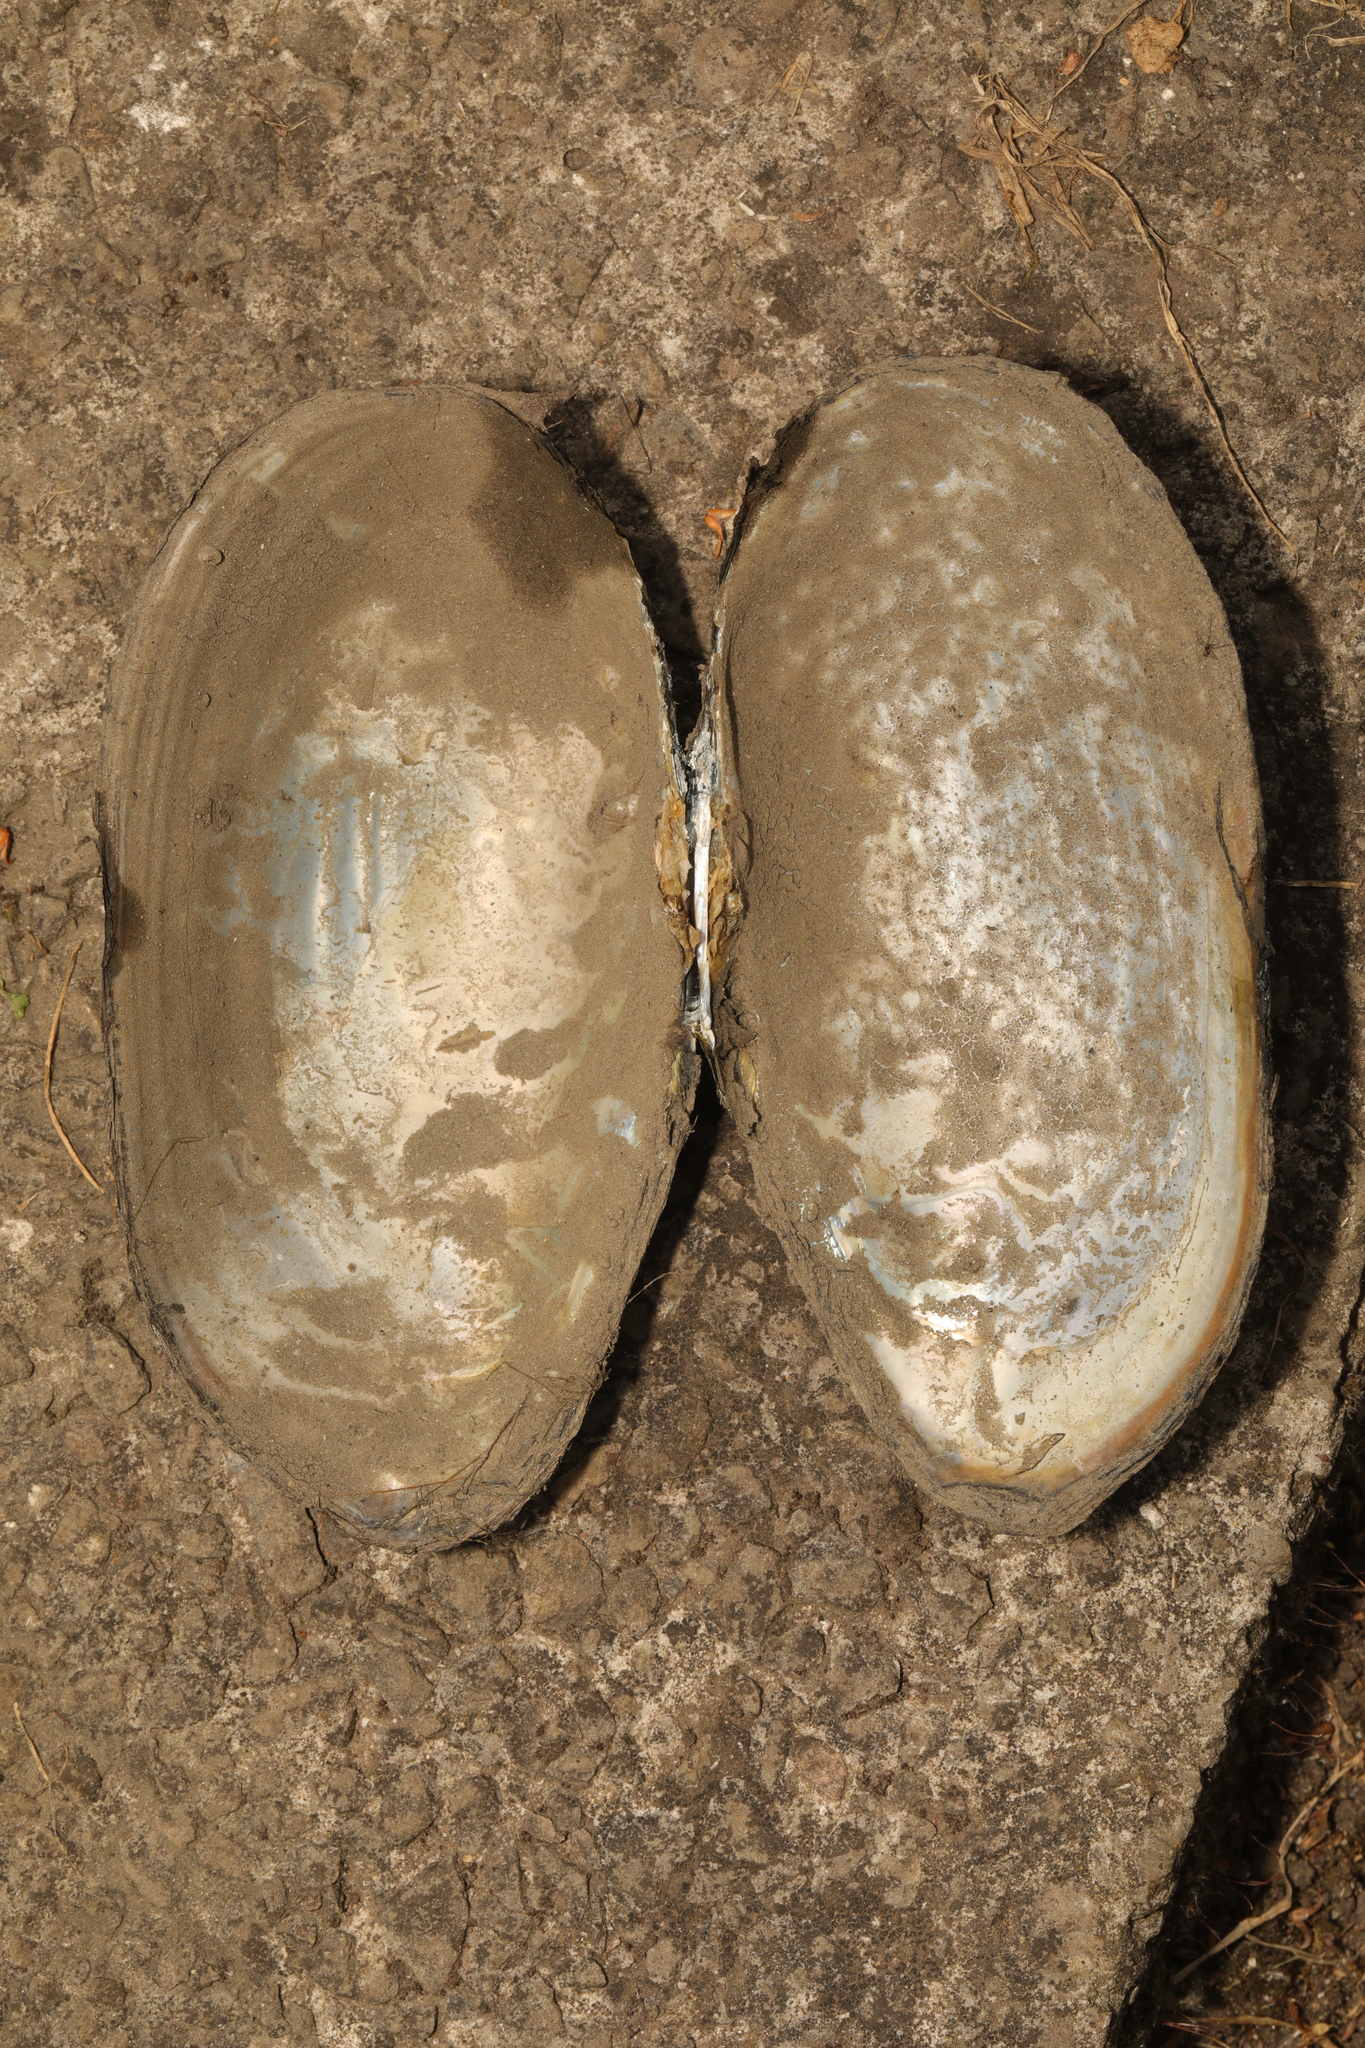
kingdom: Animalia
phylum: Mollusca
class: Bivalvia
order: Unionida
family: Unionidae
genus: Anodonta
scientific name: Anodonta cygnea
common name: Swan mussel
